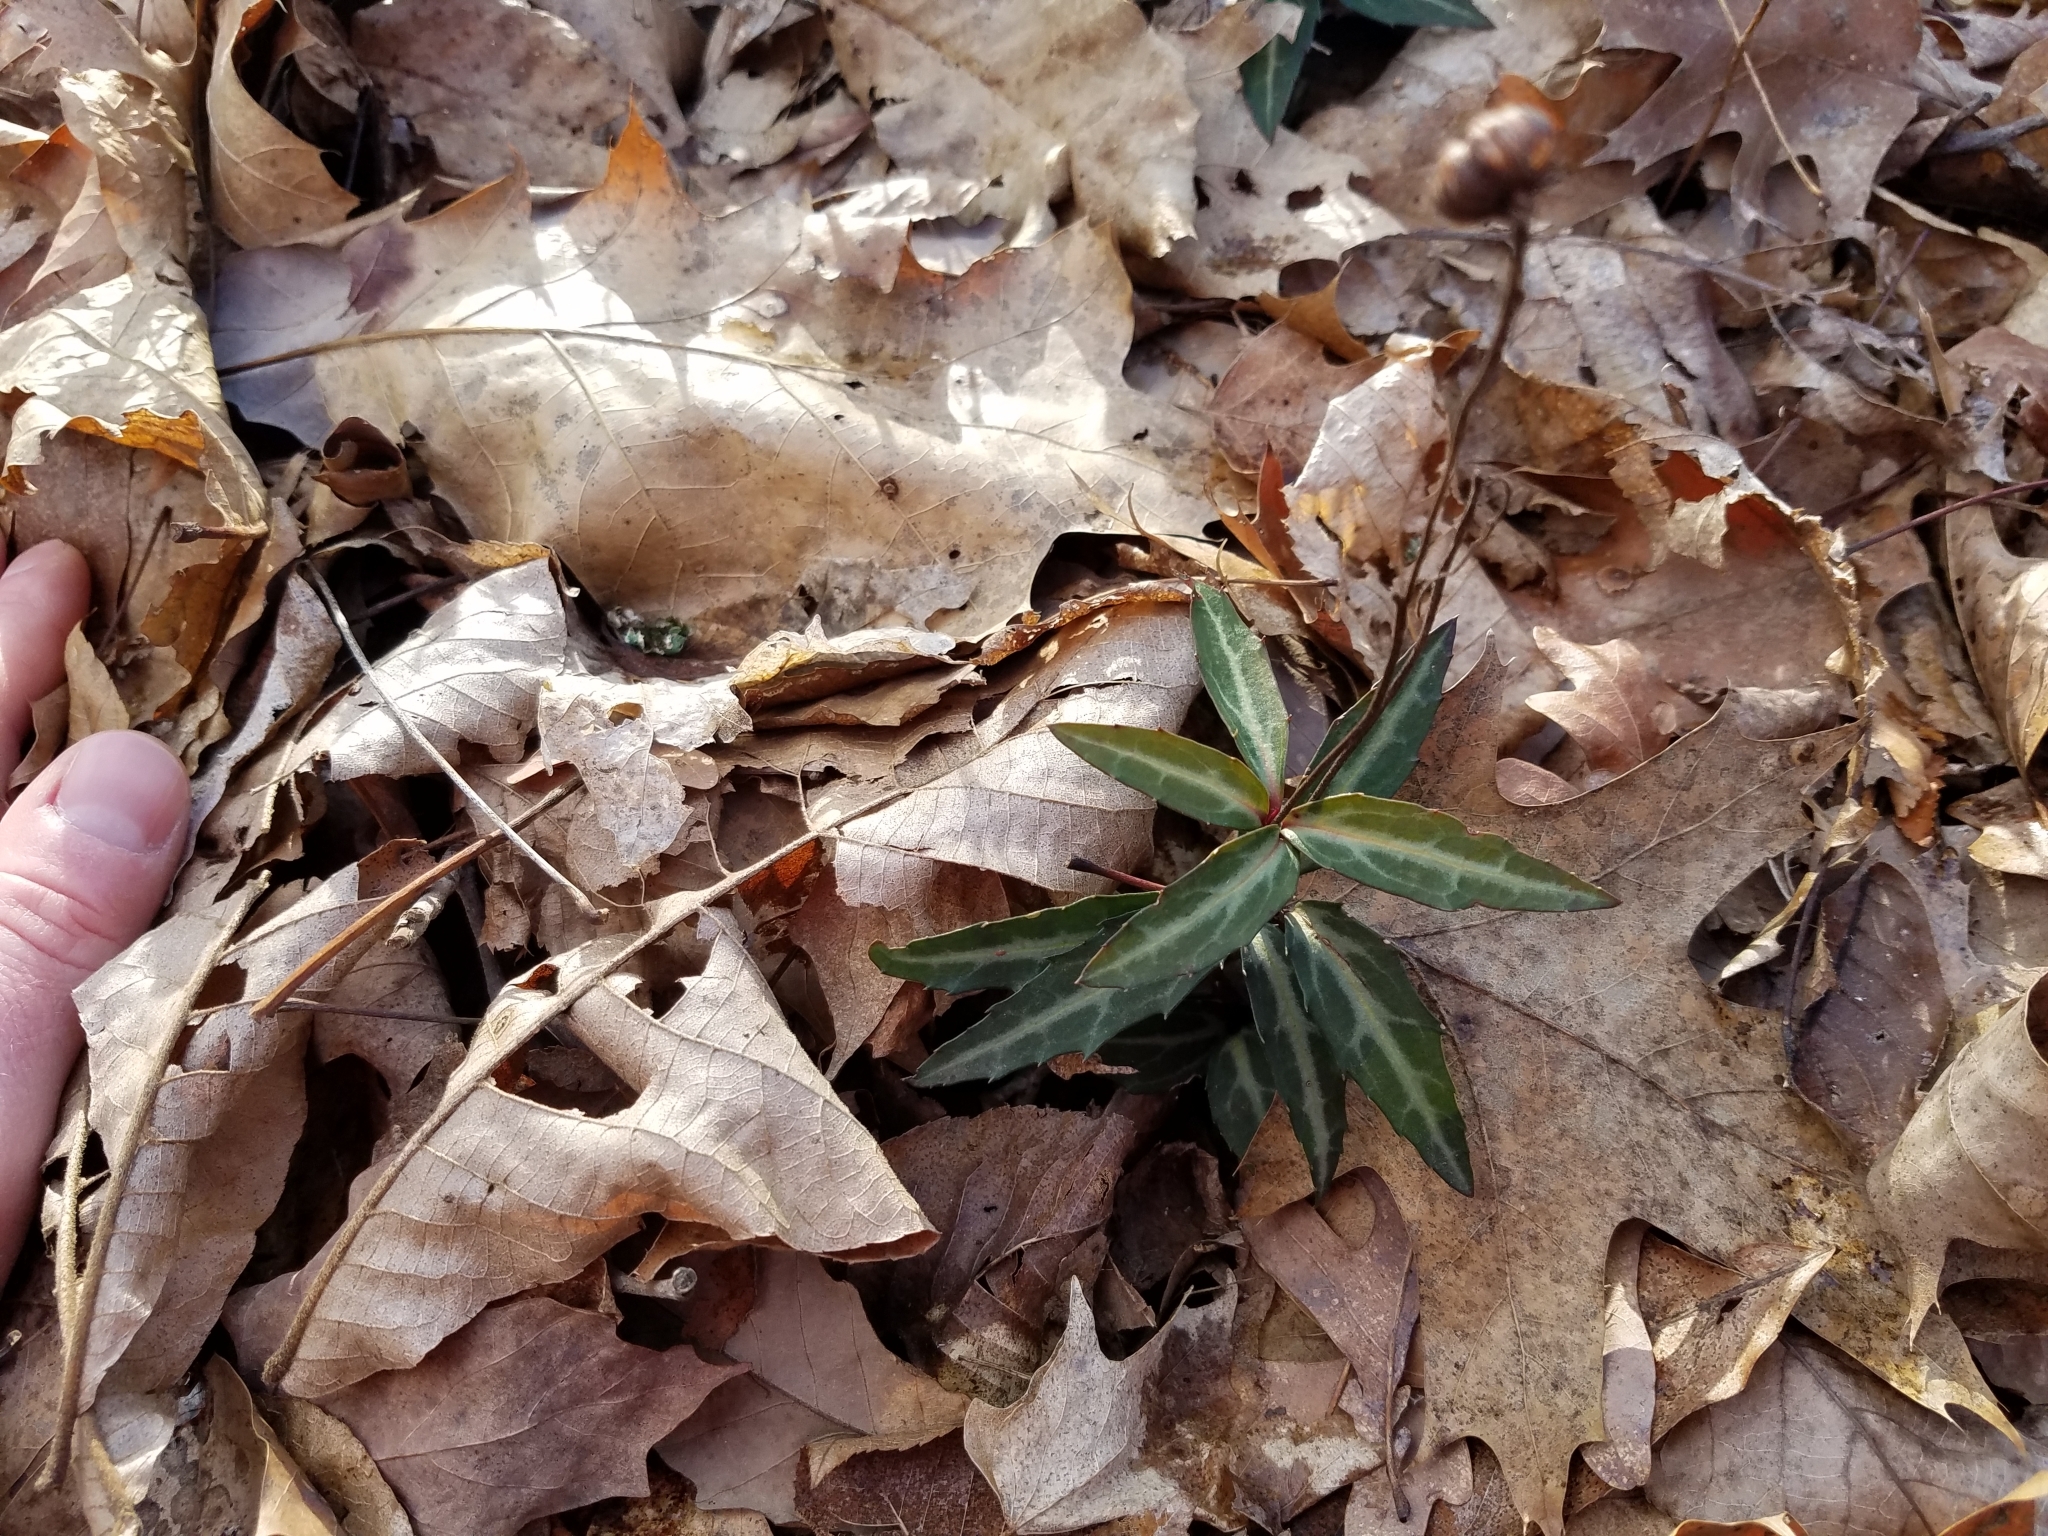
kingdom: Plantae
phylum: Tracheophyta
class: Magnoliopsida
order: Ericales
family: Ericaceae
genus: Chimaphila
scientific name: Chimaphila maculata
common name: Spotted pipsissewa
